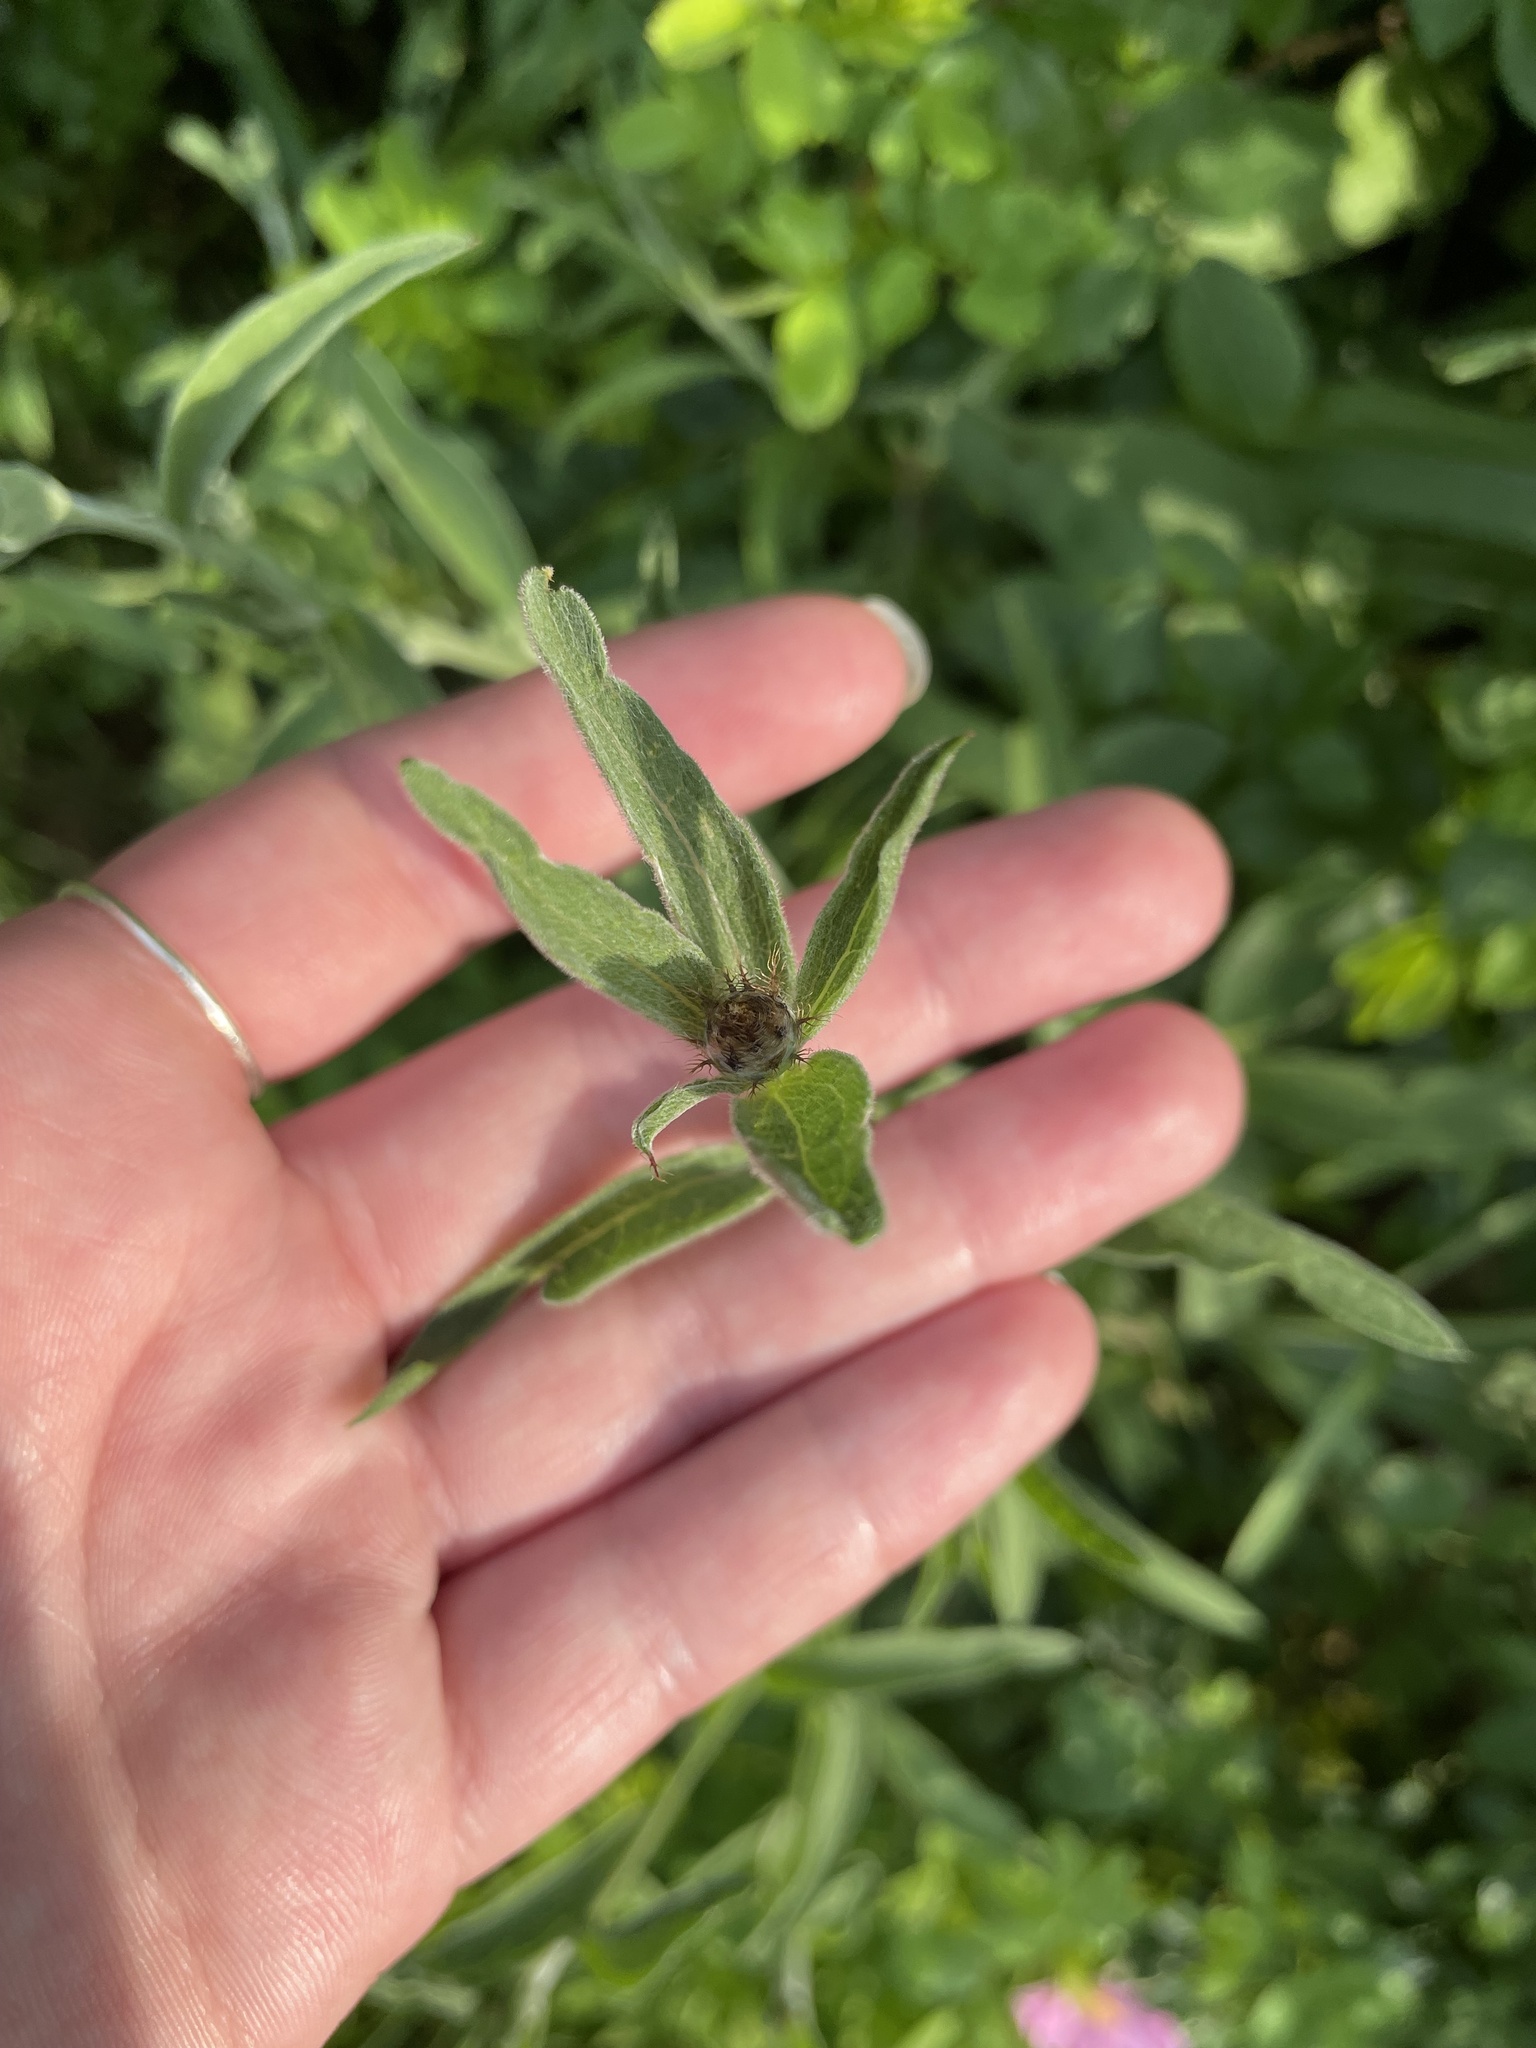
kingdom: Plantae
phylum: Tracheophyta
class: Magnoliopsida
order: Asterales
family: Asteraceae
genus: Centaurea
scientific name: Centaurea nigra
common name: Lesser knapweed
